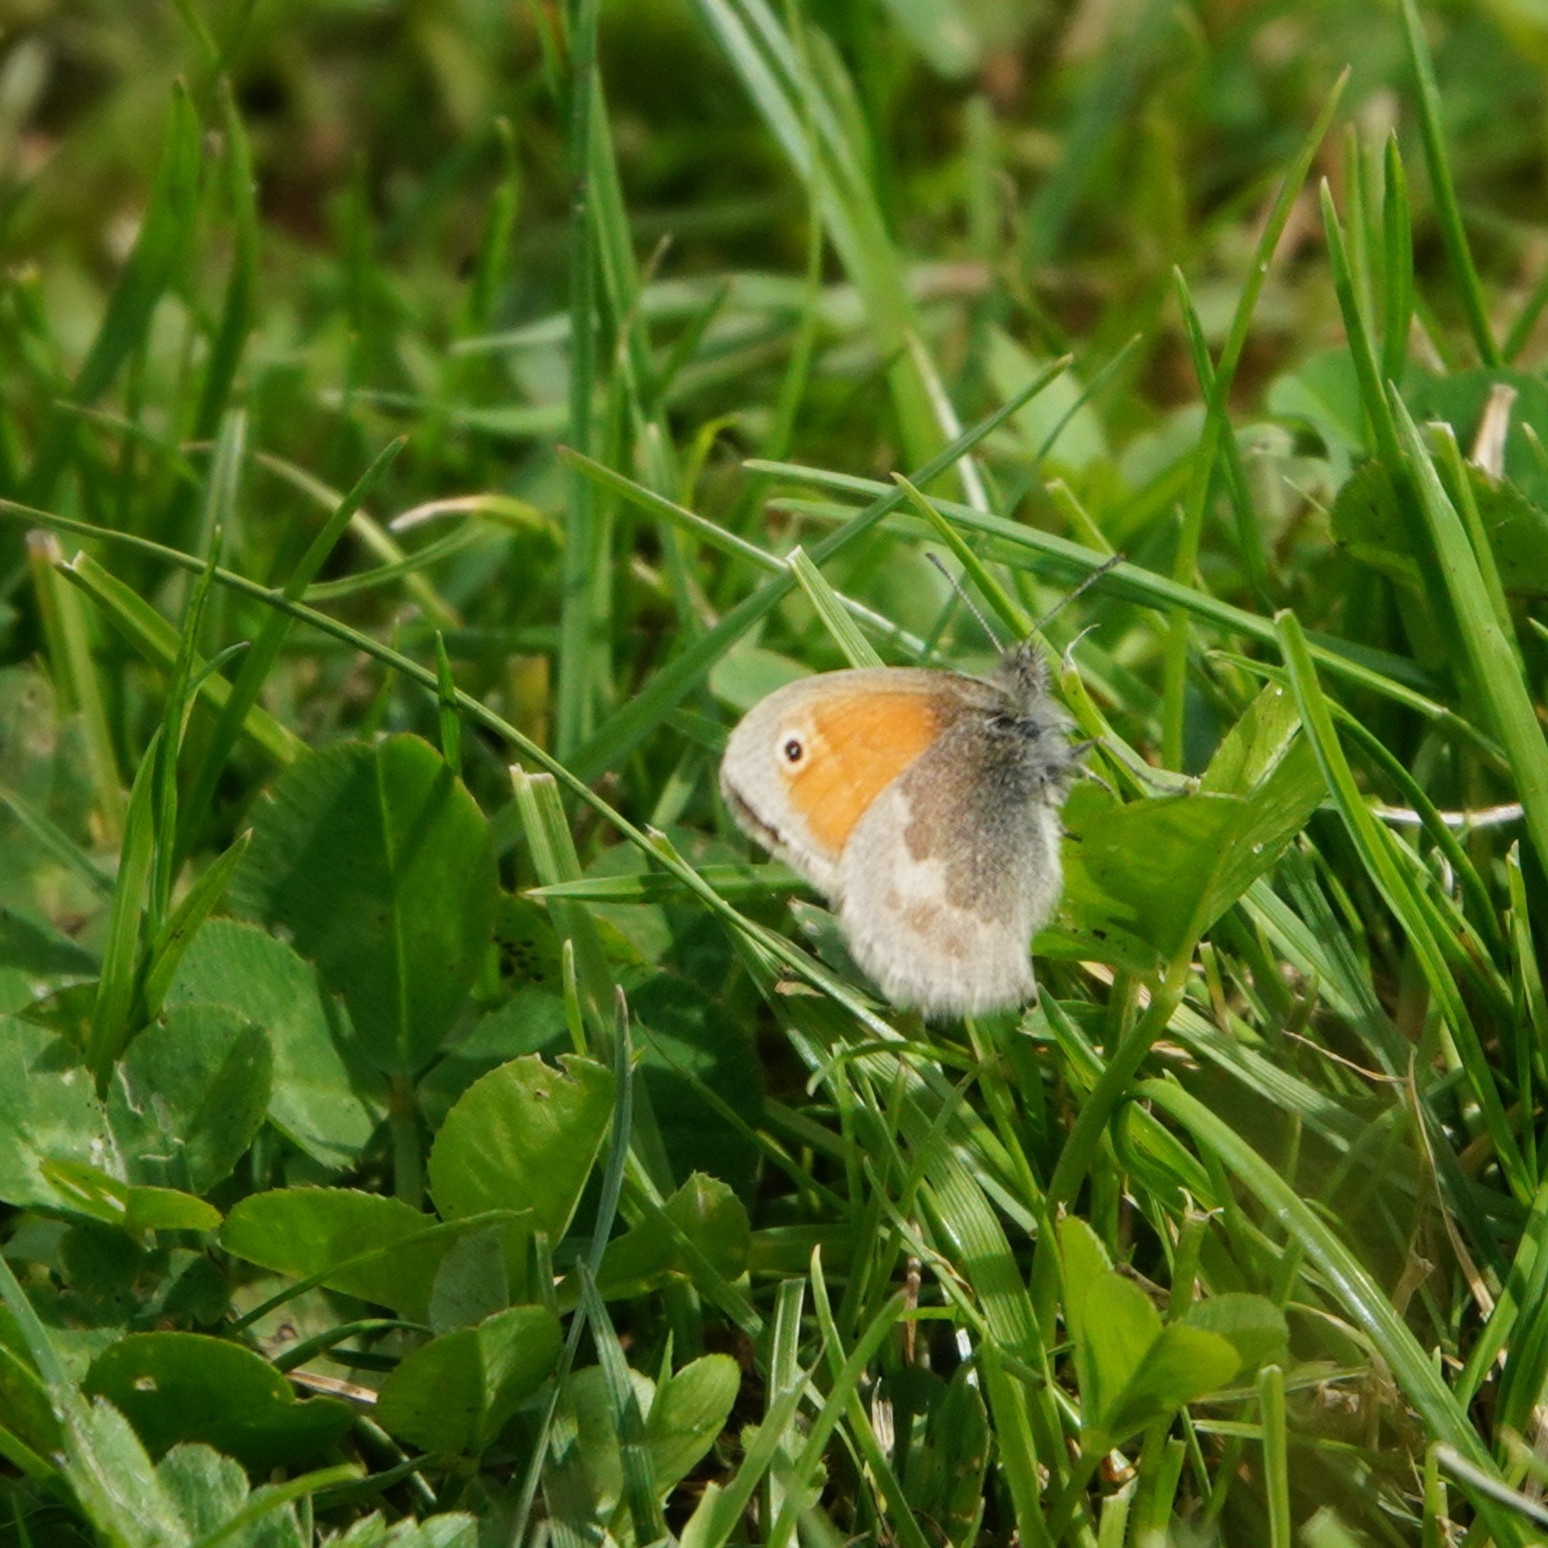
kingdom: Animalia
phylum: Arthropoda
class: Insecta
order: Lepidoptera
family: Nymphalidae
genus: Coenonympha
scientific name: Coenonympha pamphilus
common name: Small heath
